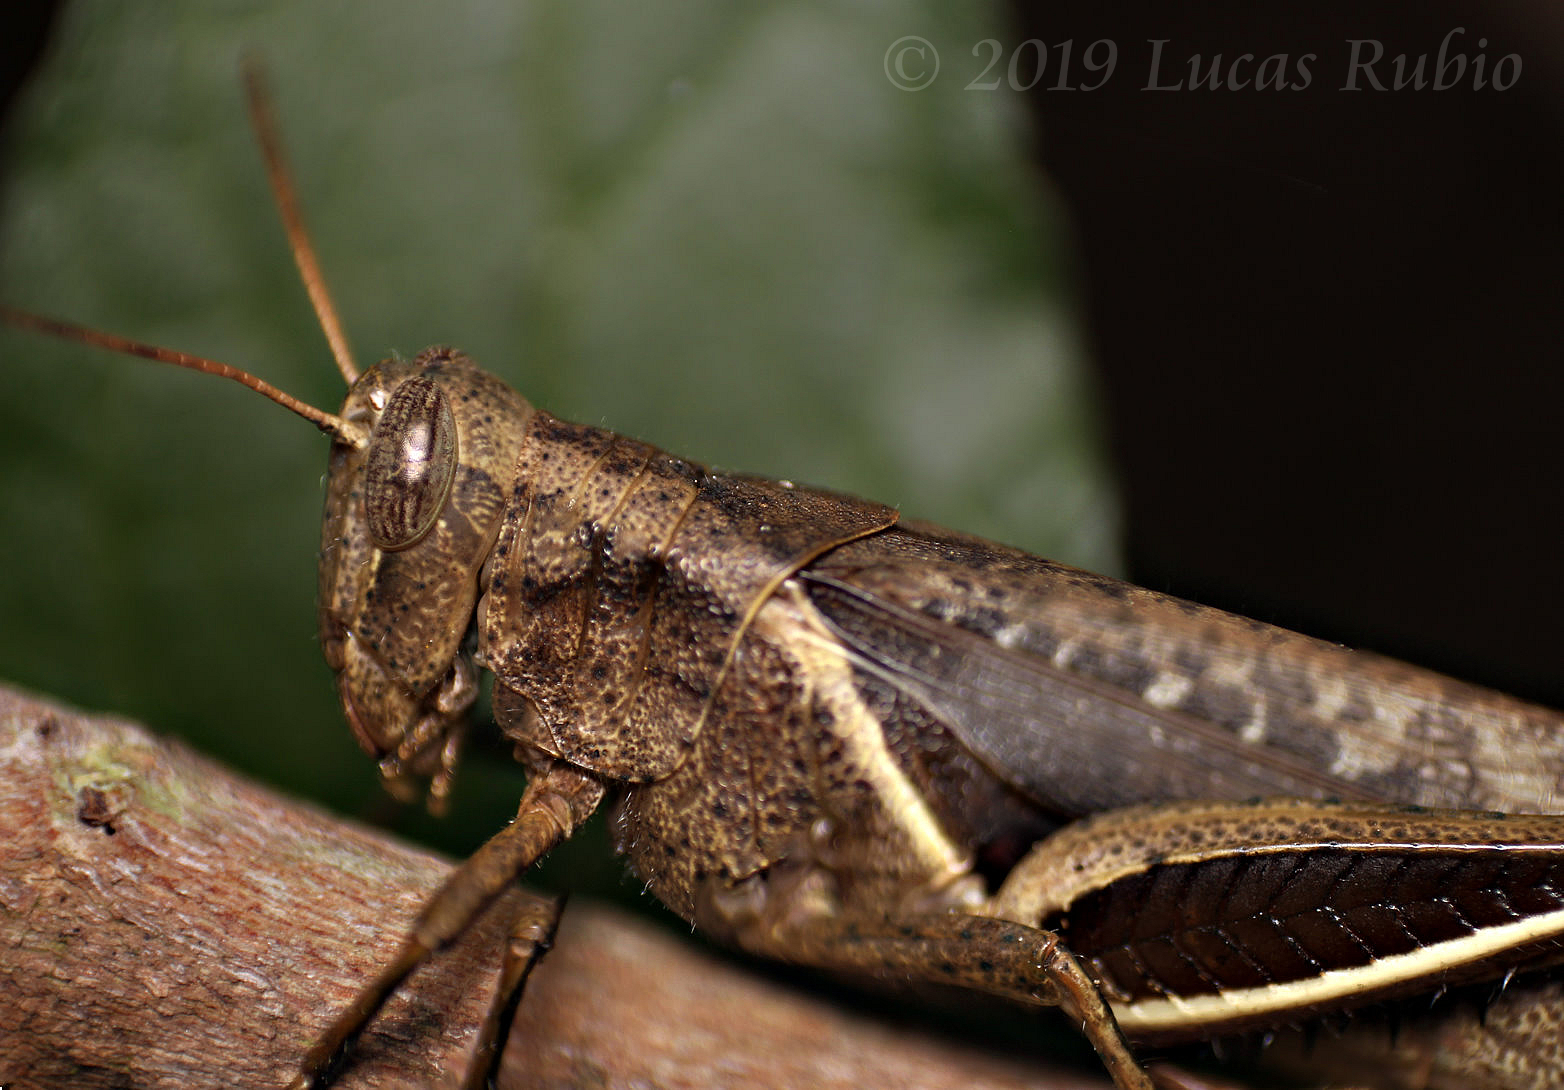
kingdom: Animalia
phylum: Arthropoda
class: Insecta
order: Orthoptera
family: Acrididae
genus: Abracris
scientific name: Abracris flavolineata
